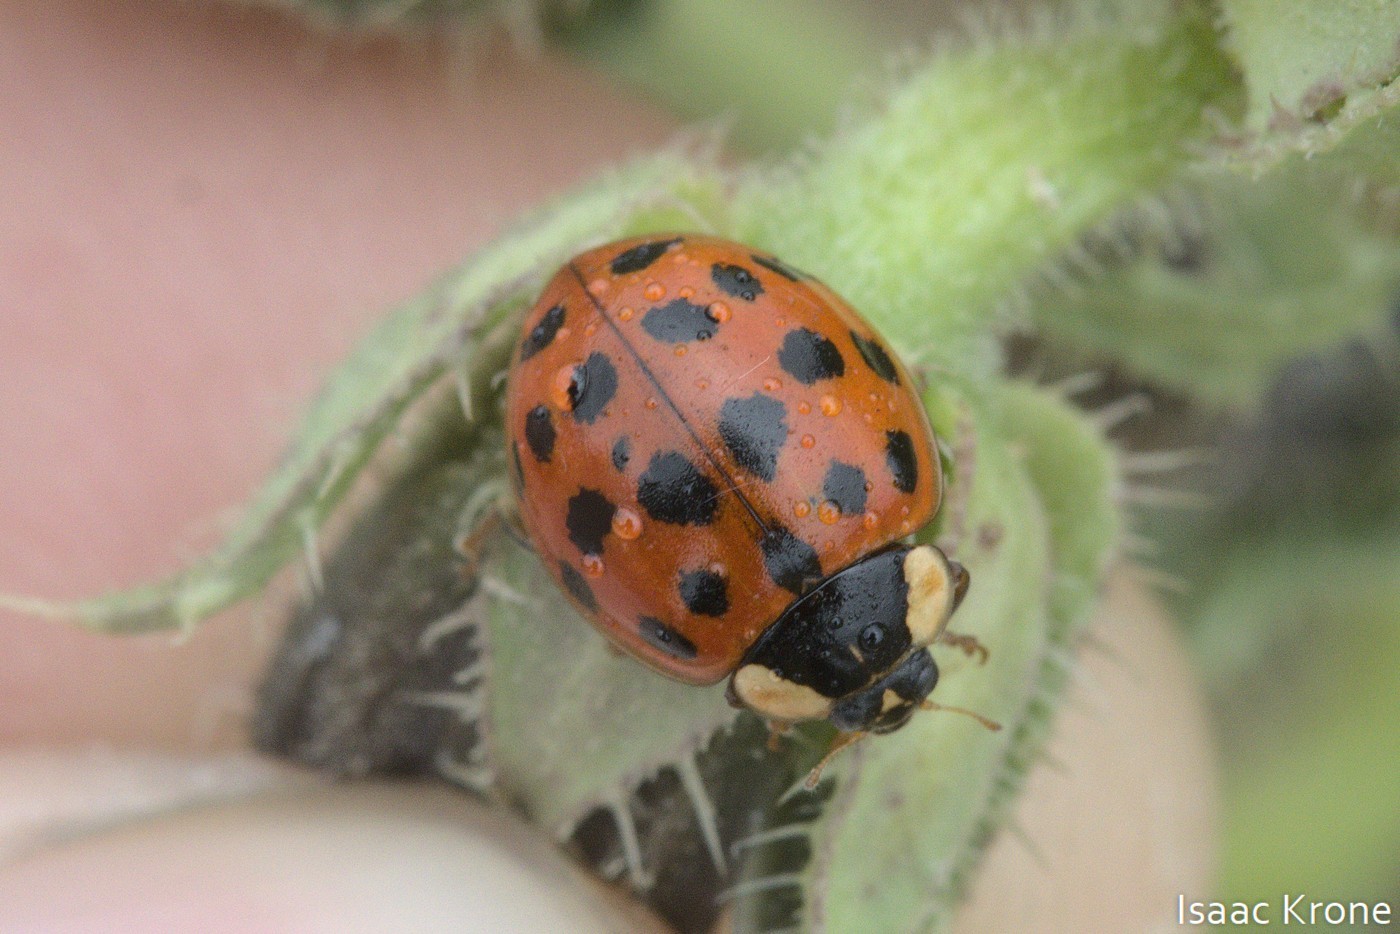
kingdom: Animalia
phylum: Arthropoda
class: Insecta
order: Coleoptera
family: Coccinellidae
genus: Harmonia
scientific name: Harmonia axyridis
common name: Harlequin ladybird
